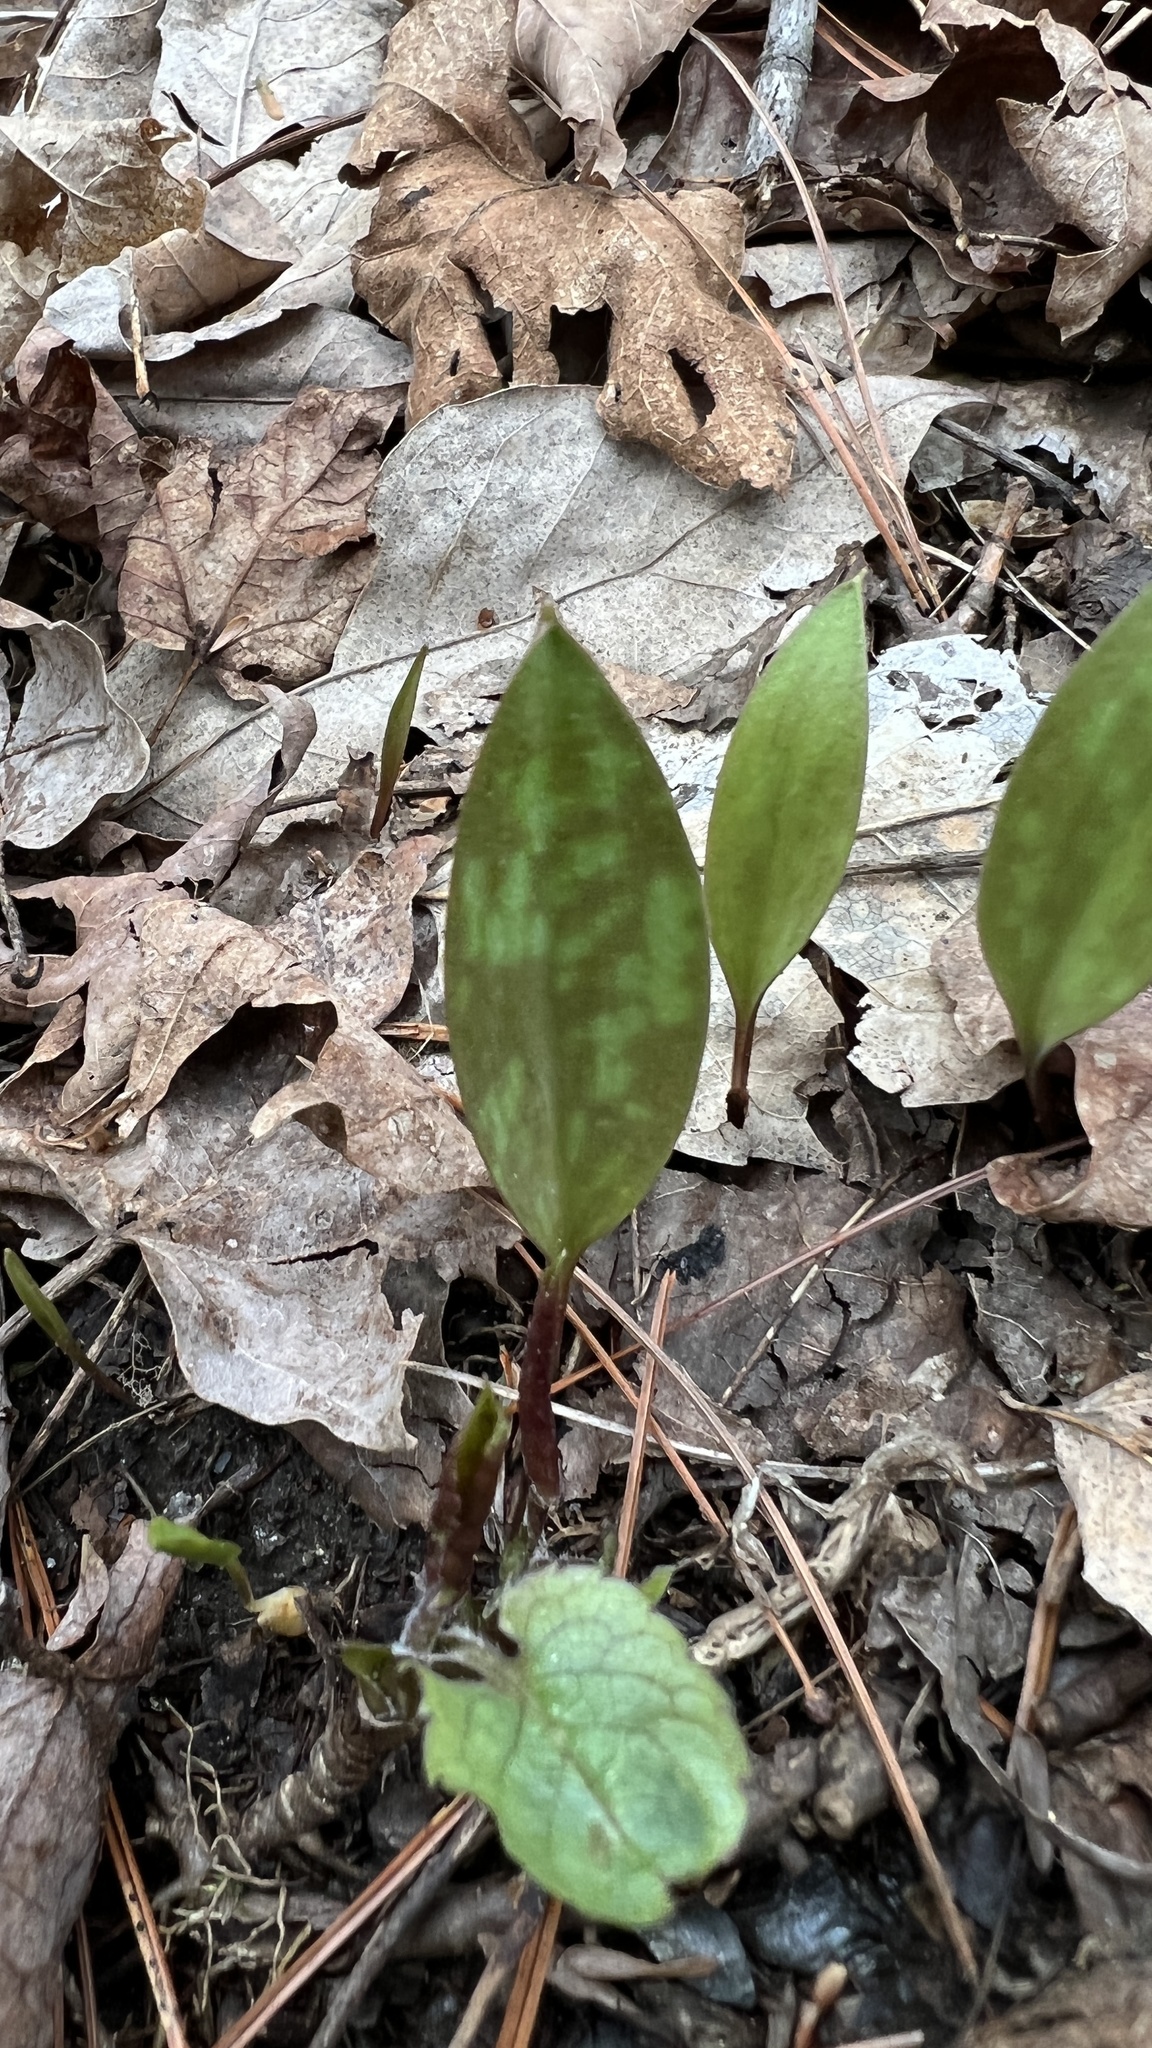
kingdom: Plantae
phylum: Tracheophyta
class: Liliopsida
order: Liliales
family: Liliaceae
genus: Erythronium
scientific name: Erythronium americanum
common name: Yellow adder's-tongue
